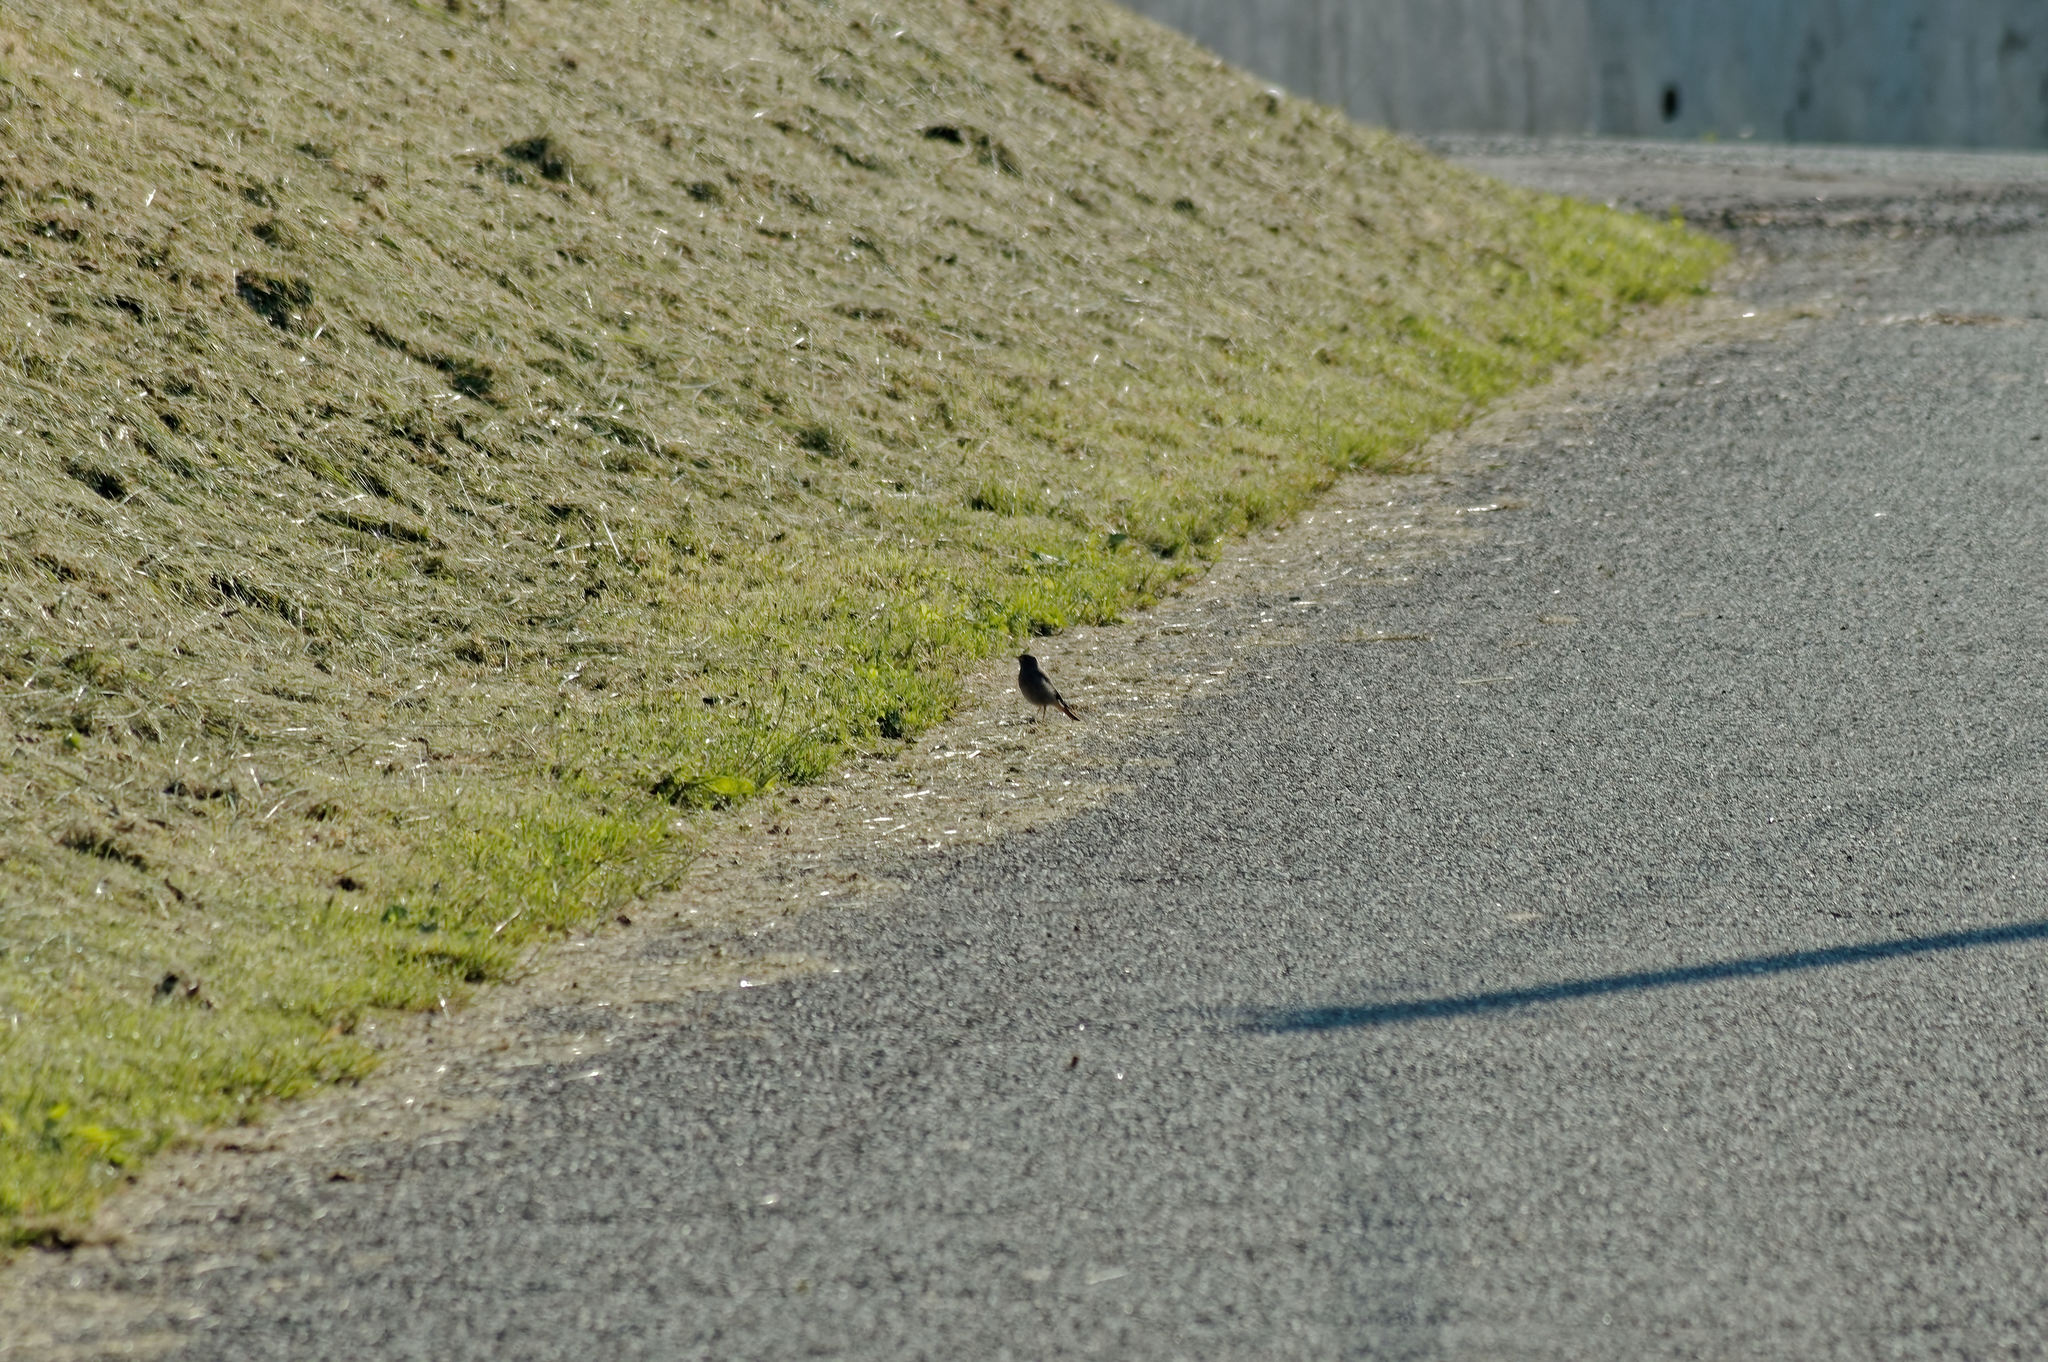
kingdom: Animalia
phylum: Chordata
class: Aves
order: Passeriformes
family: Muscicapidae
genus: Phoenicurus
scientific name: Phoenicurus ochruros
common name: Black redstart
